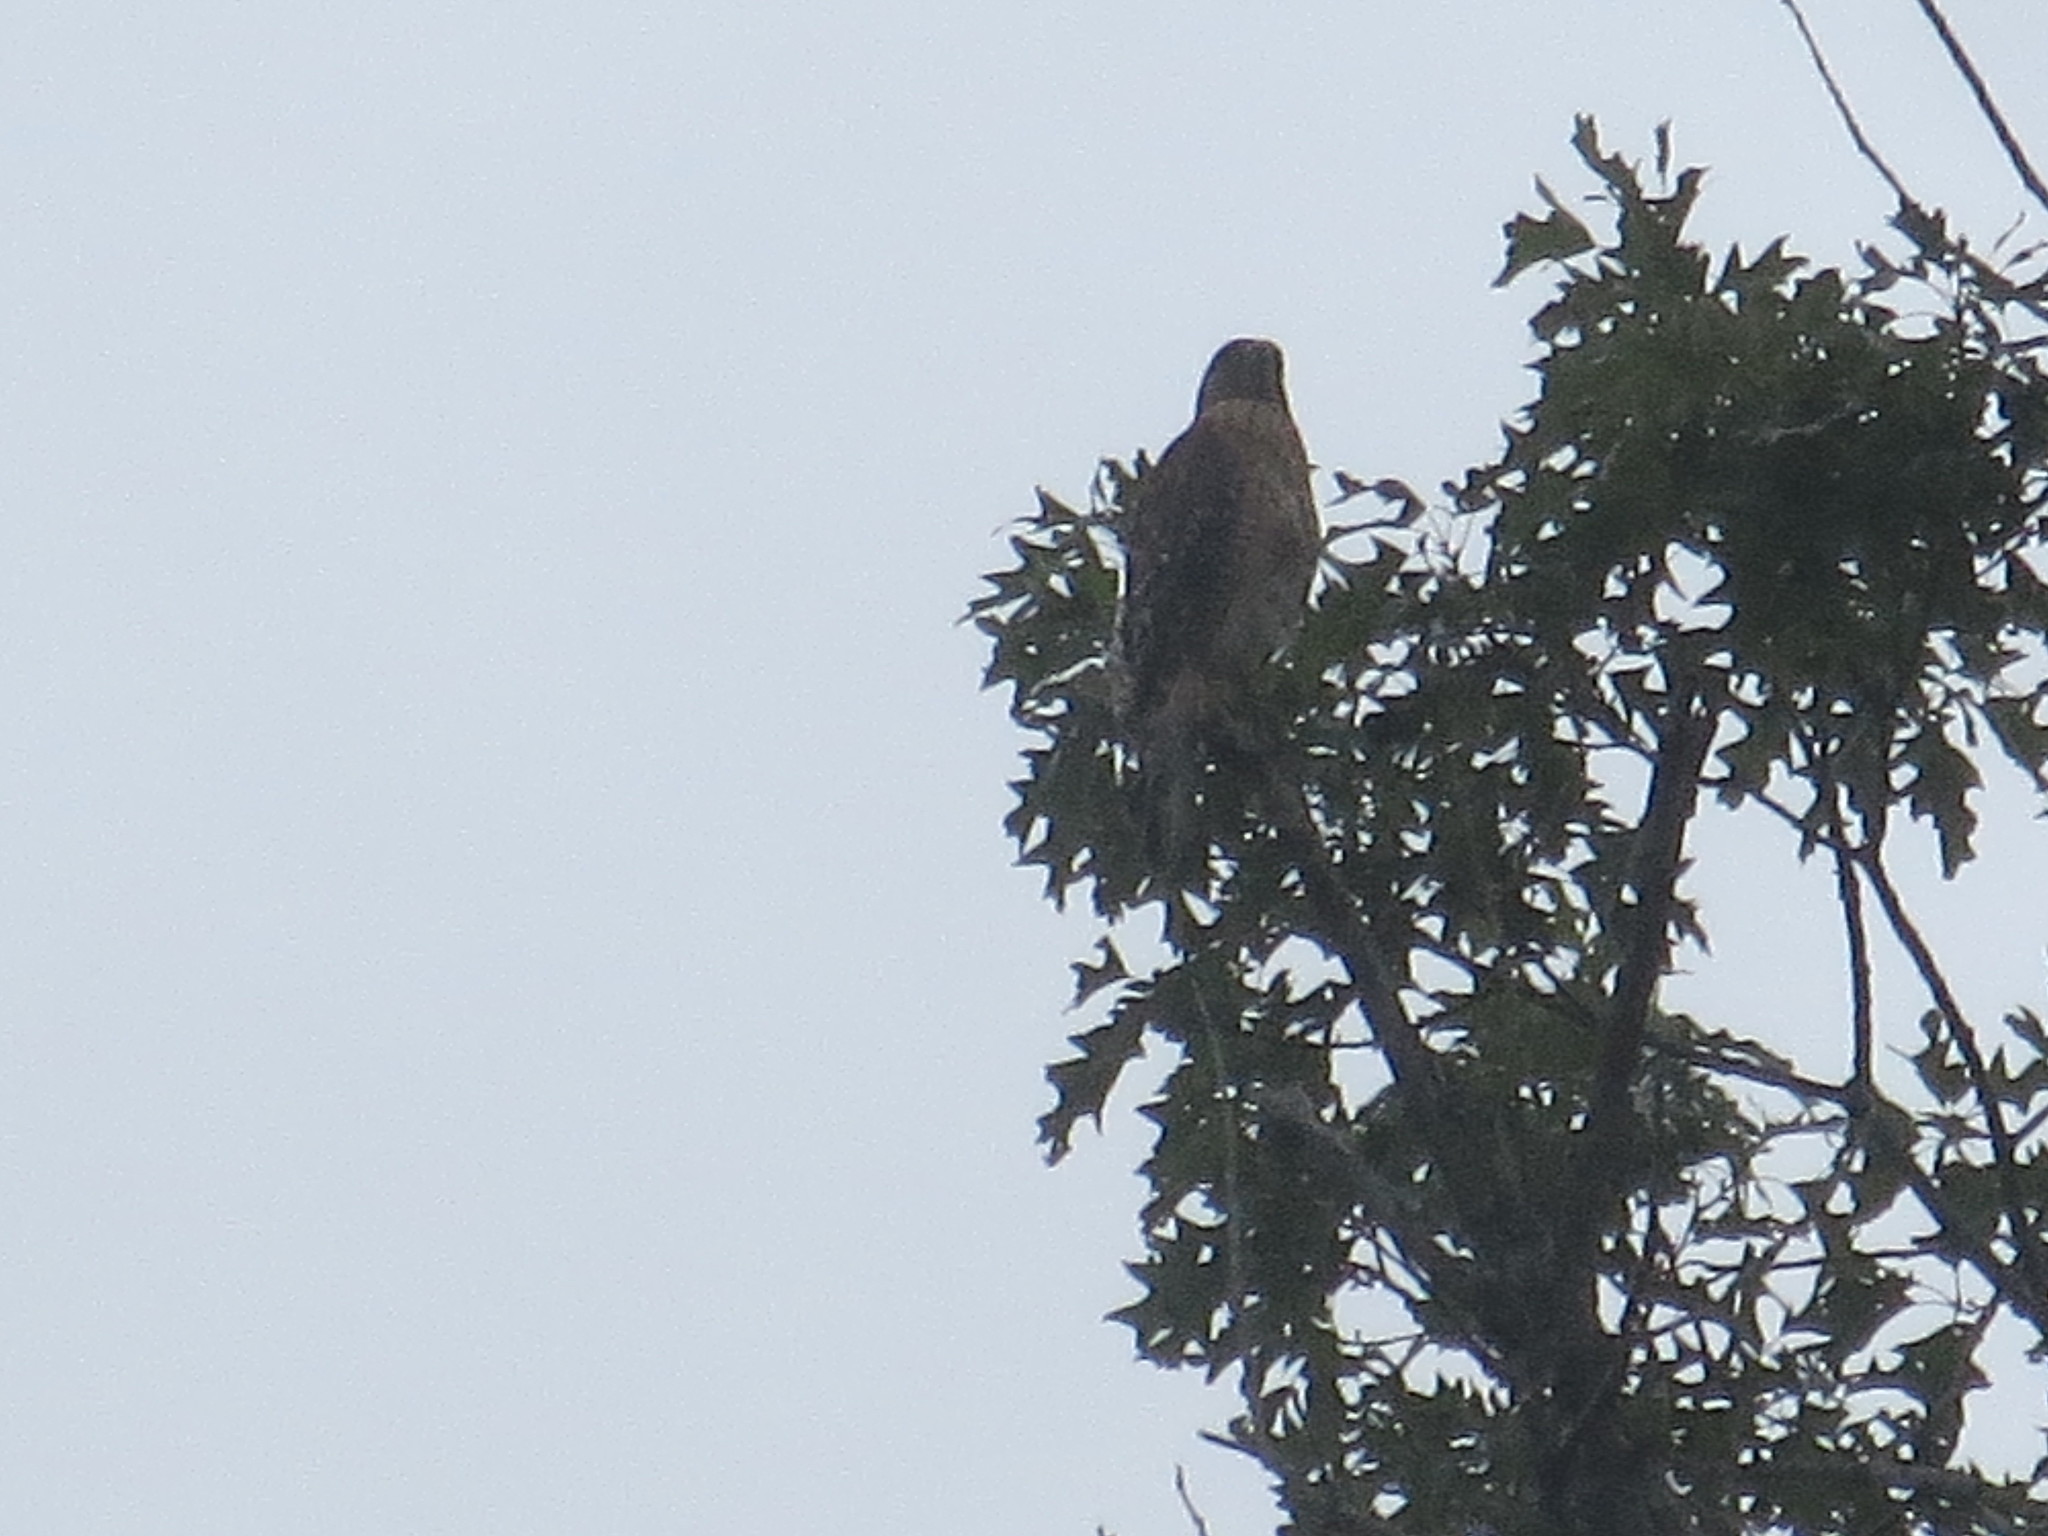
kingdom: Animalia
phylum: Chordata
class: Aves
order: Accipitriformes
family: Accipitridae
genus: Buteo
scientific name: Buteo lineatus
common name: Red-shouldered hawk
